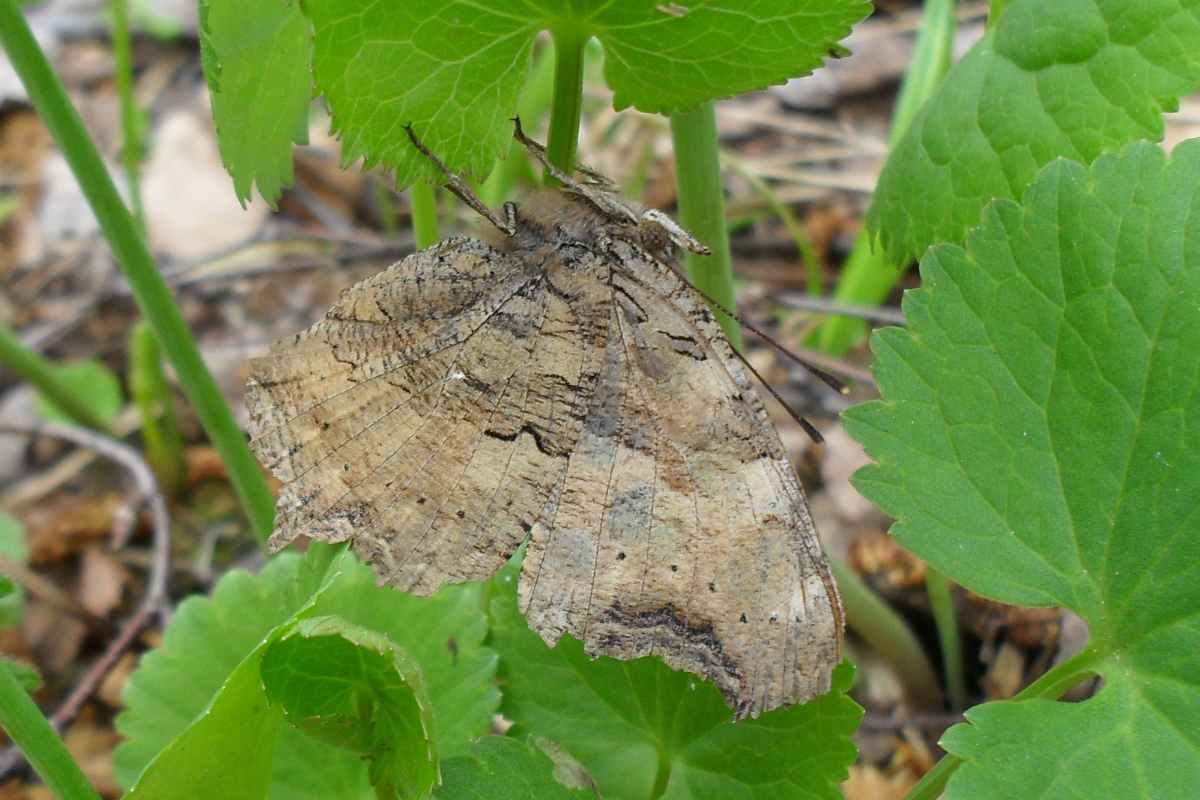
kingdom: Animalia
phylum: Arthropoda
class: Insecta
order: Lepidoptera
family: Nymphalidae
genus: Polygonia
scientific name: Polygonia vaualbum
